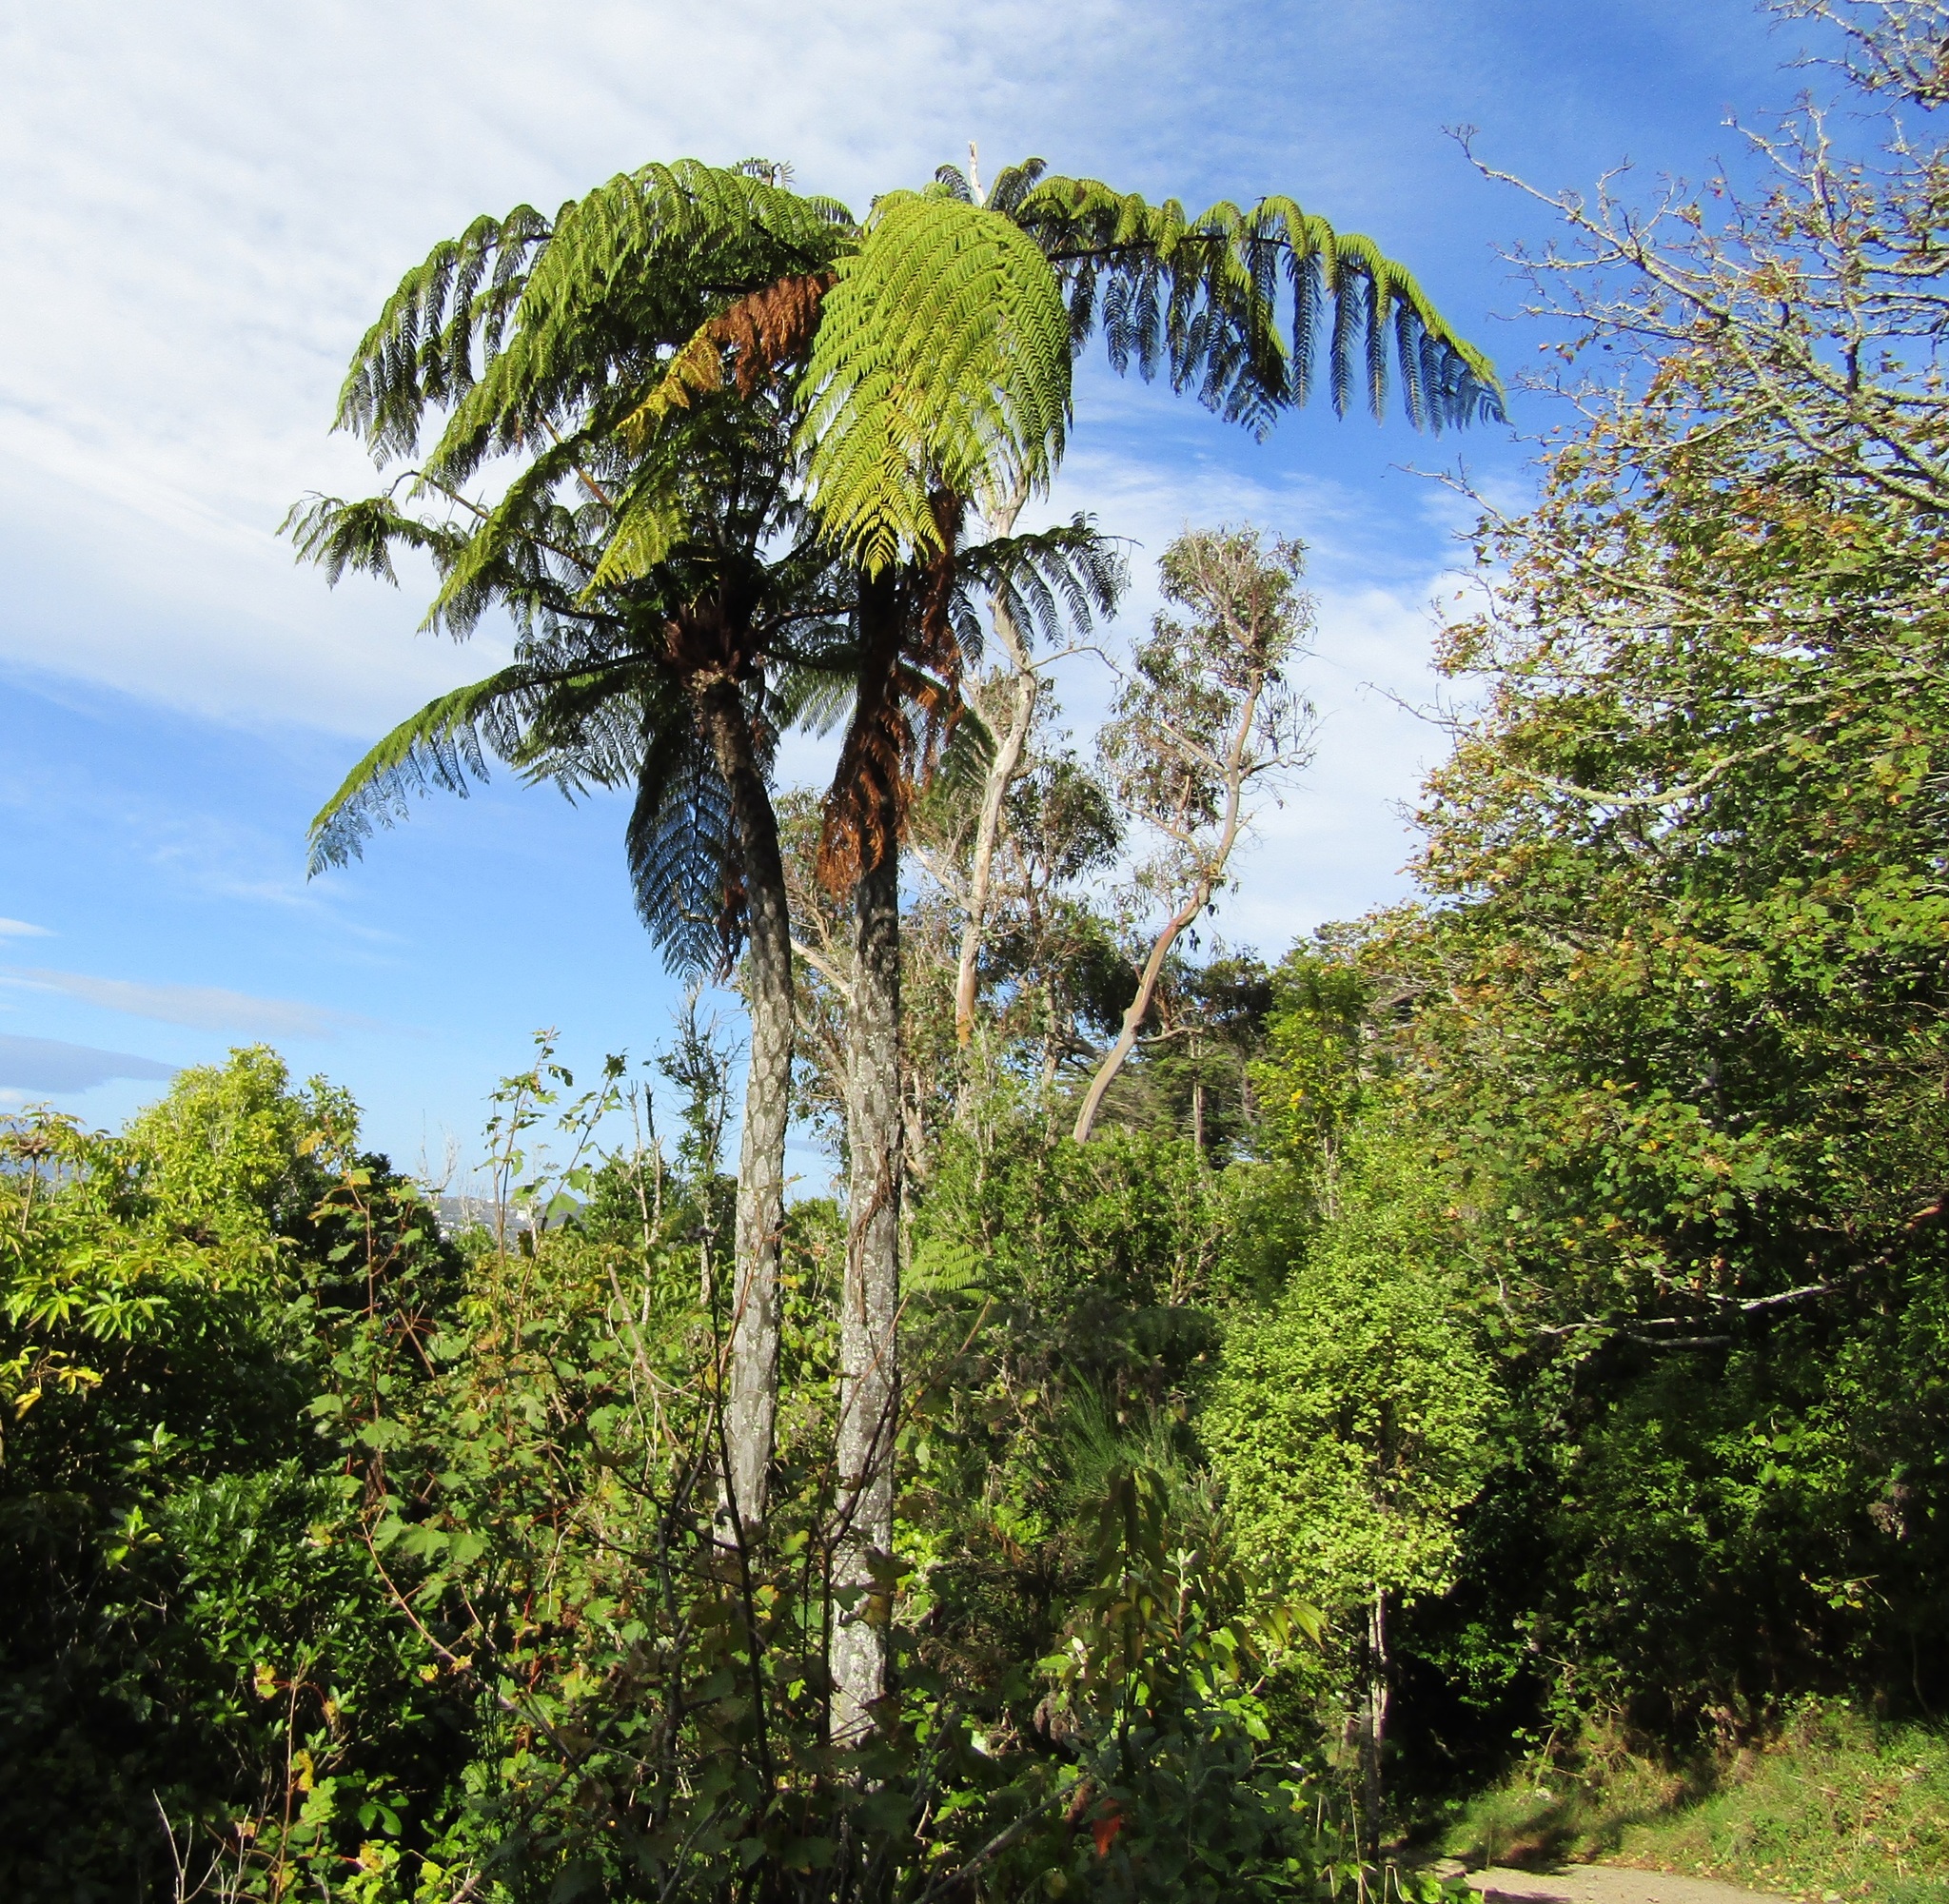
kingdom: Plantae
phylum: Tracheophyta
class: Polypodiopsida
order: Cyatheales
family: Cyatheaceae
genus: Sphaeropteris
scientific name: Sphaeropteris medullaris
